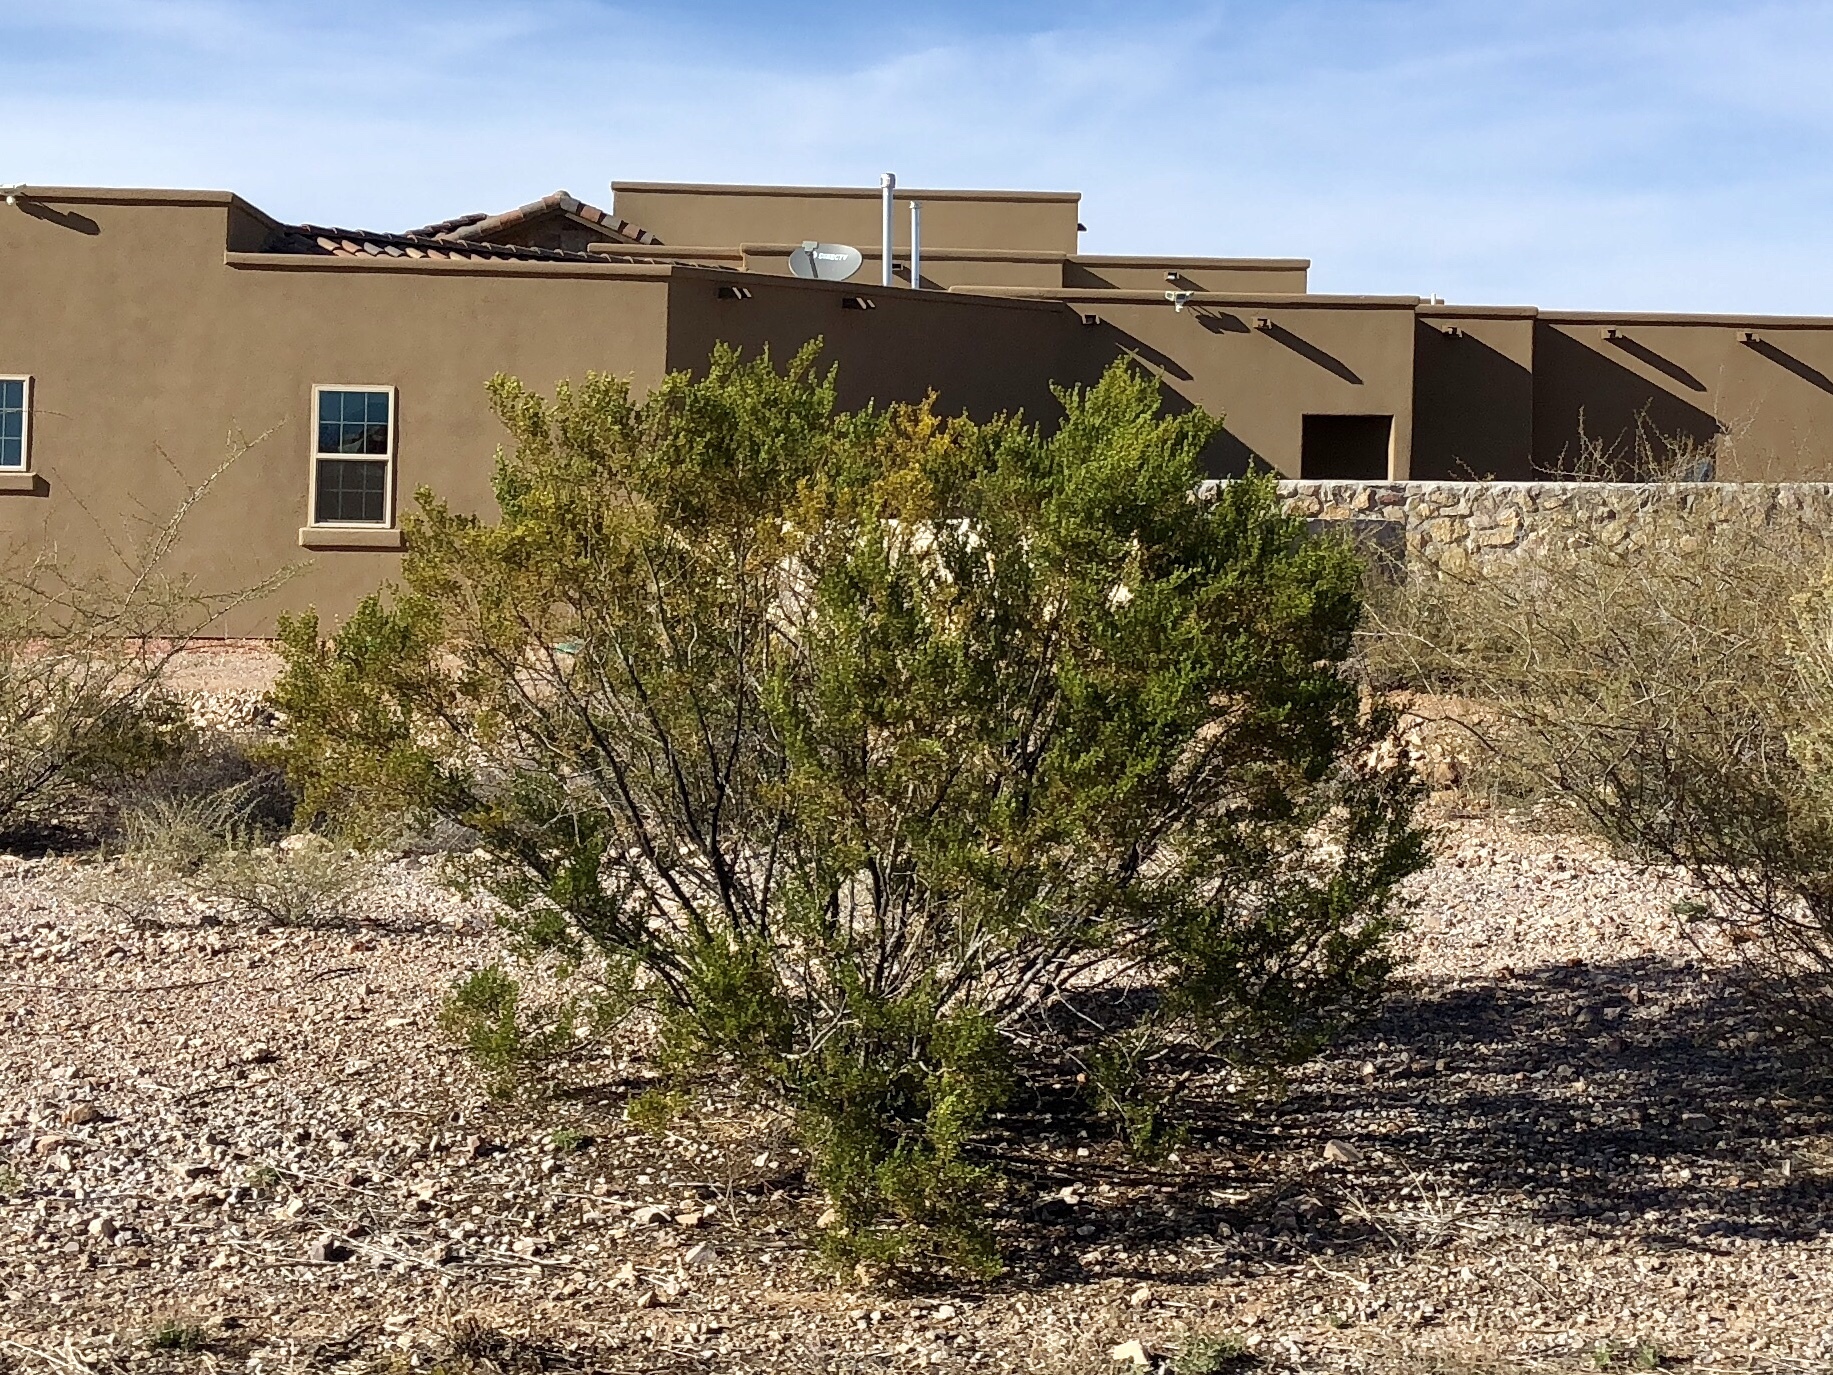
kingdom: Plantae
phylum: Tracheophyta
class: Magnoliopsida
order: Zygophyllales
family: Zygophyllaceae
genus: Larrea
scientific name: Larrea tridentata
